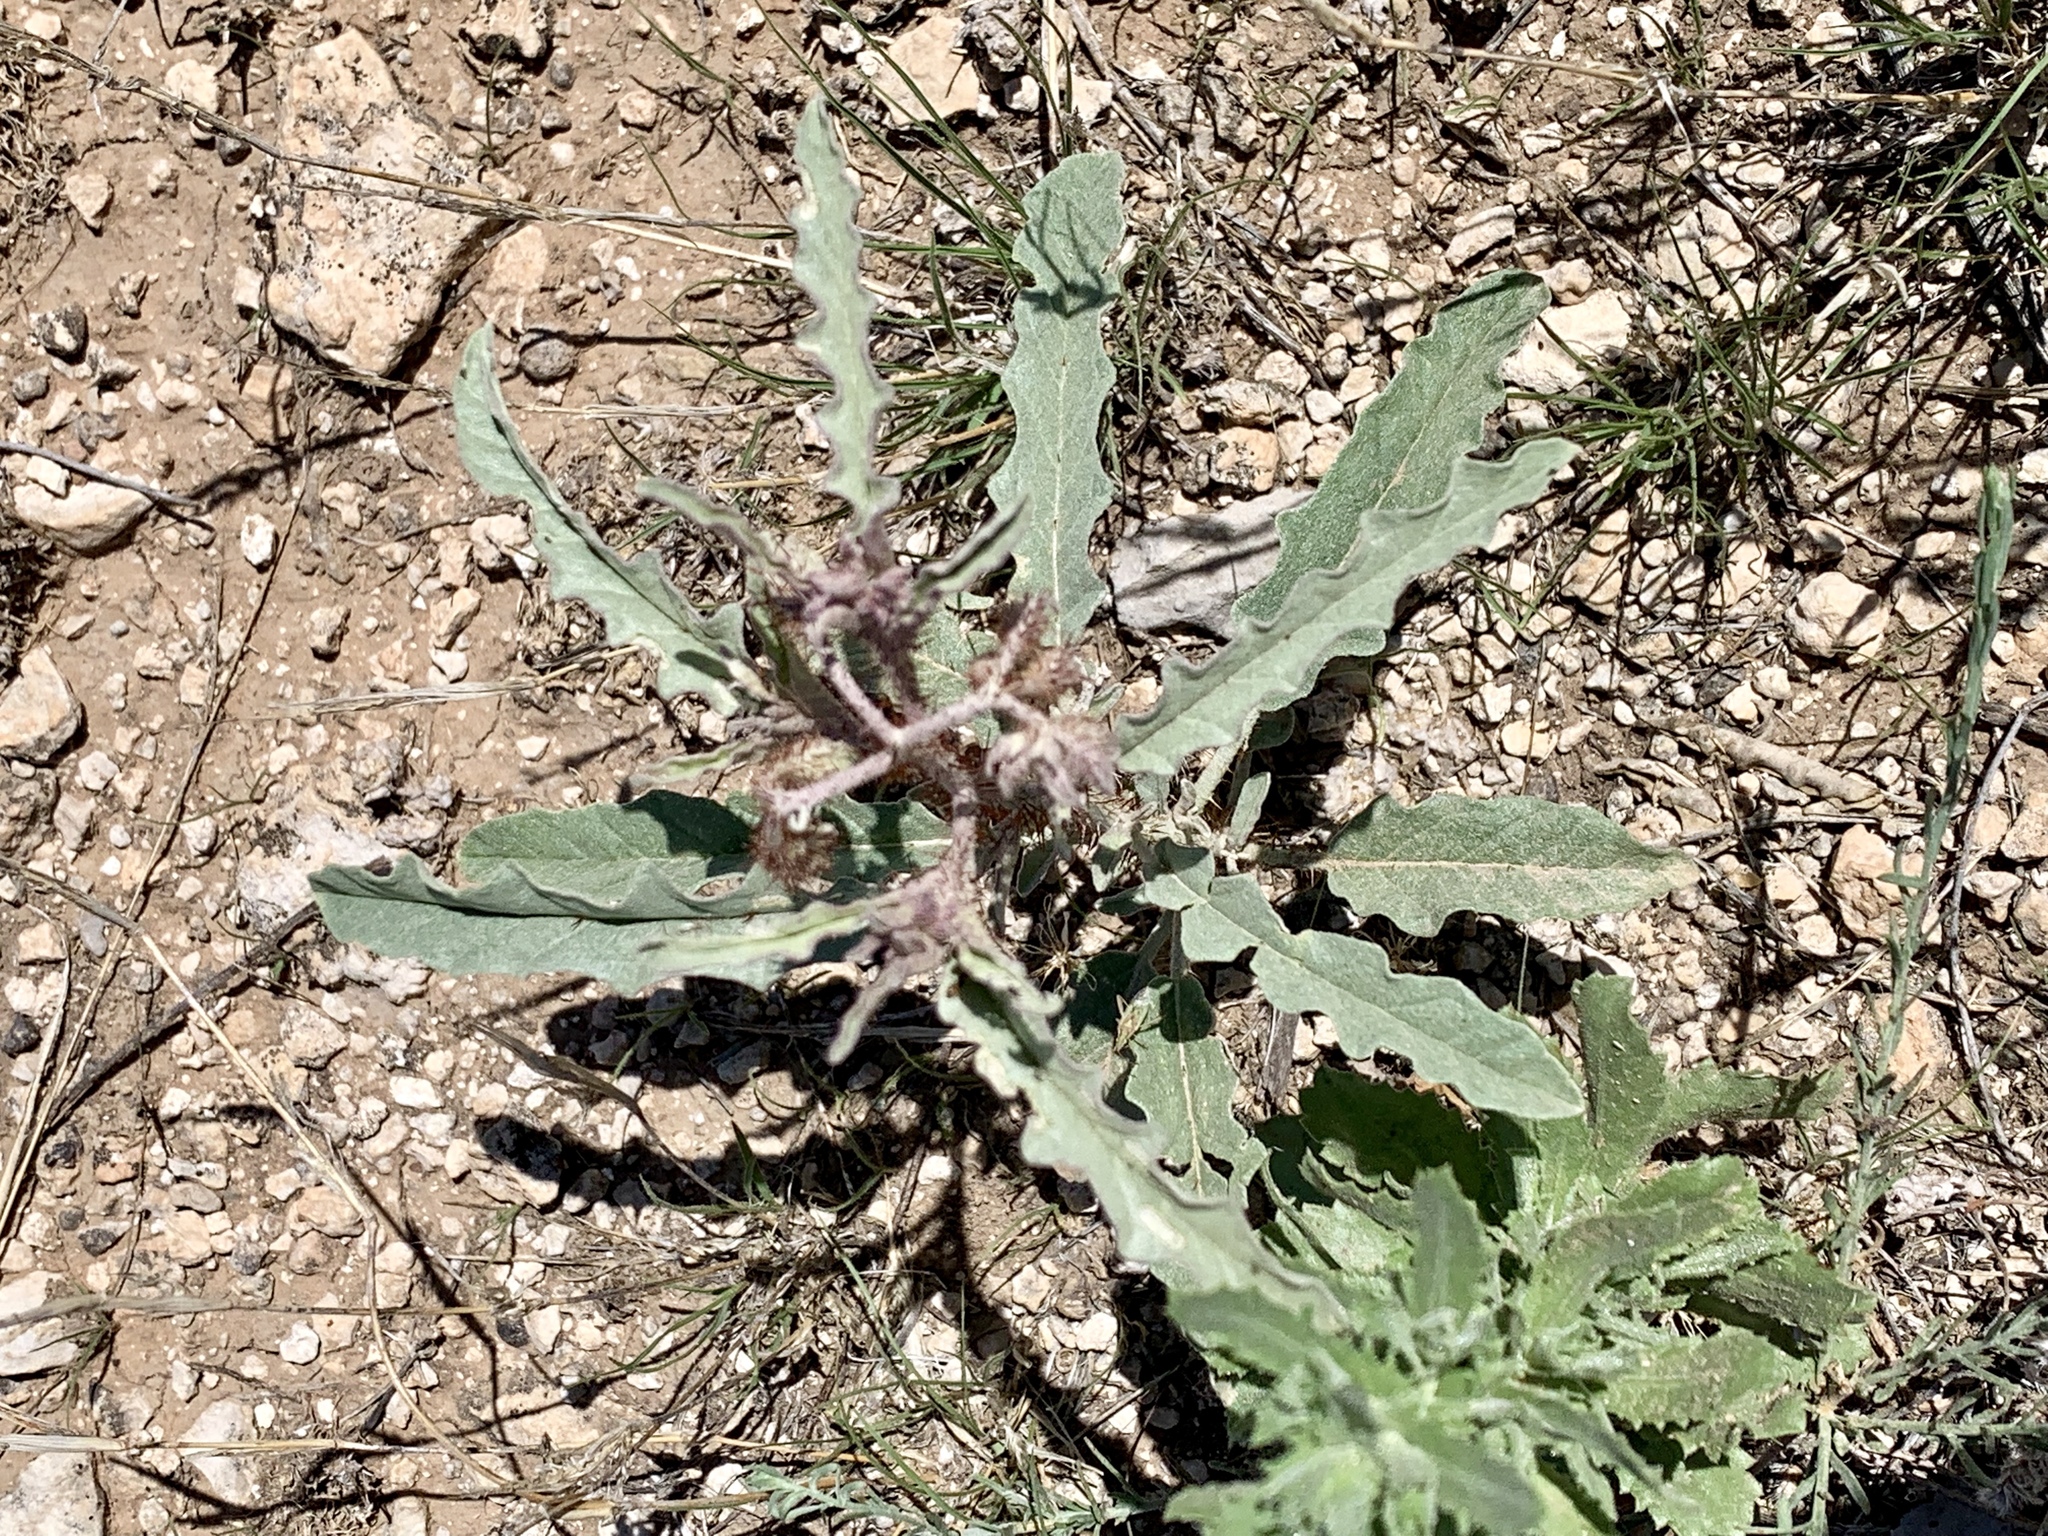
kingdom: Plantae
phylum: Tracheophyta
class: Magnoliopsida
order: Solanales
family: Solanaceae
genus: Solanum
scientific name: Solanum elaeagnifolium
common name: Silverleaf nightshade
